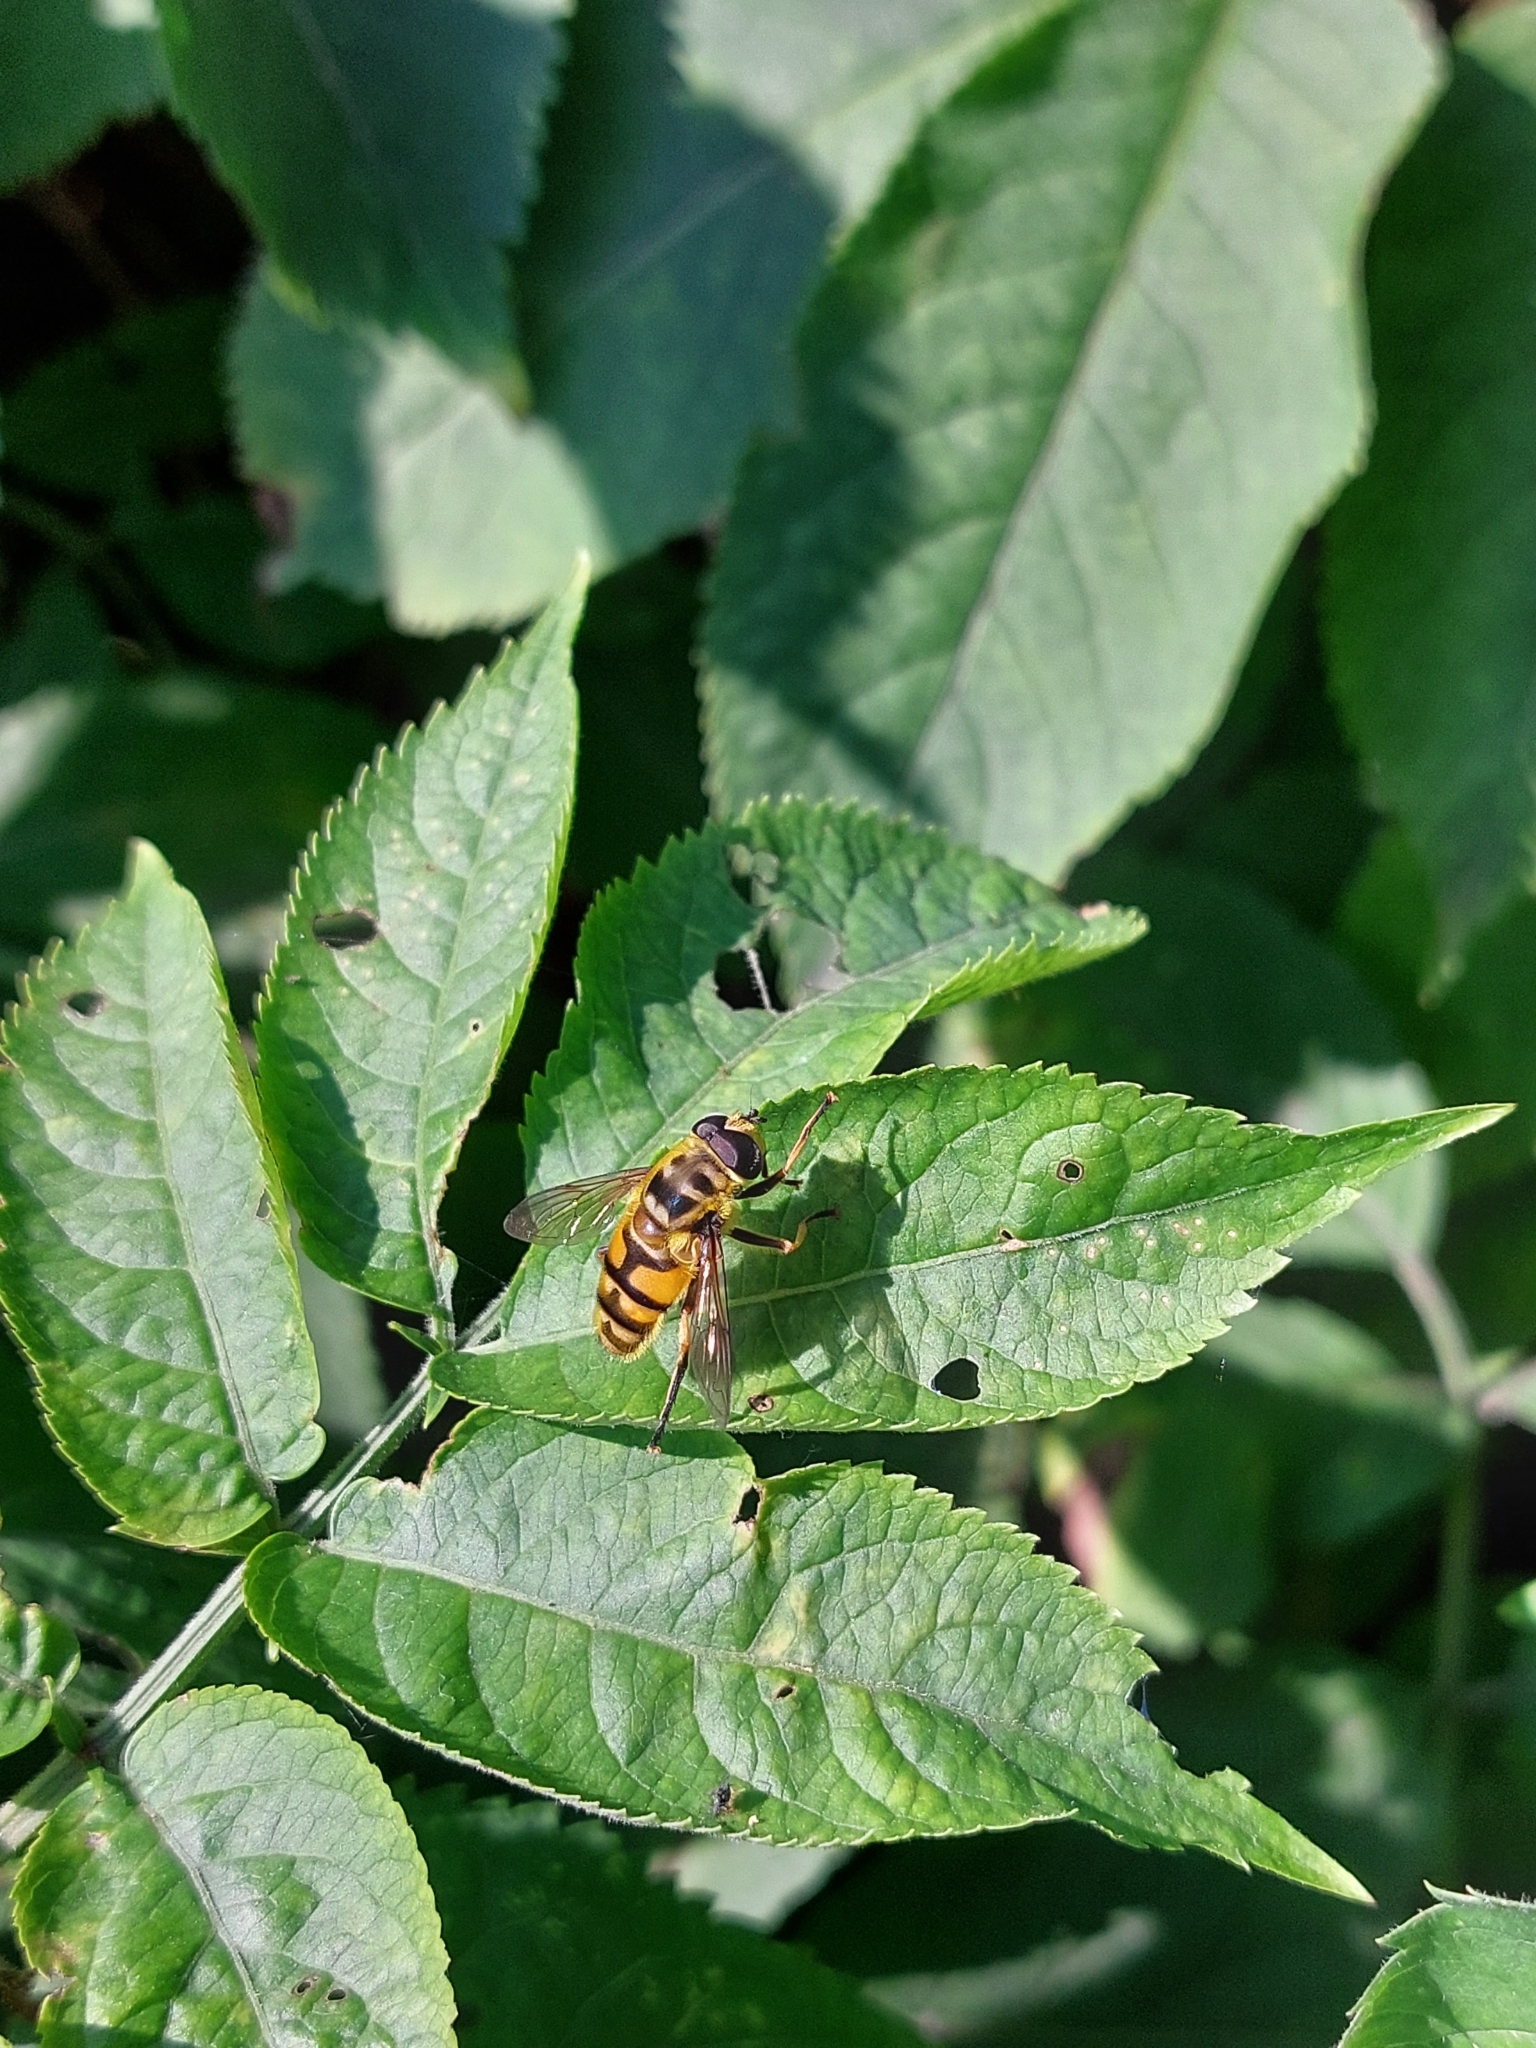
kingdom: Animalia
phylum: Arthropoda
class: Insecta
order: Diptera
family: Syrphidae
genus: Myathropa
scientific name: Myathropa florea
